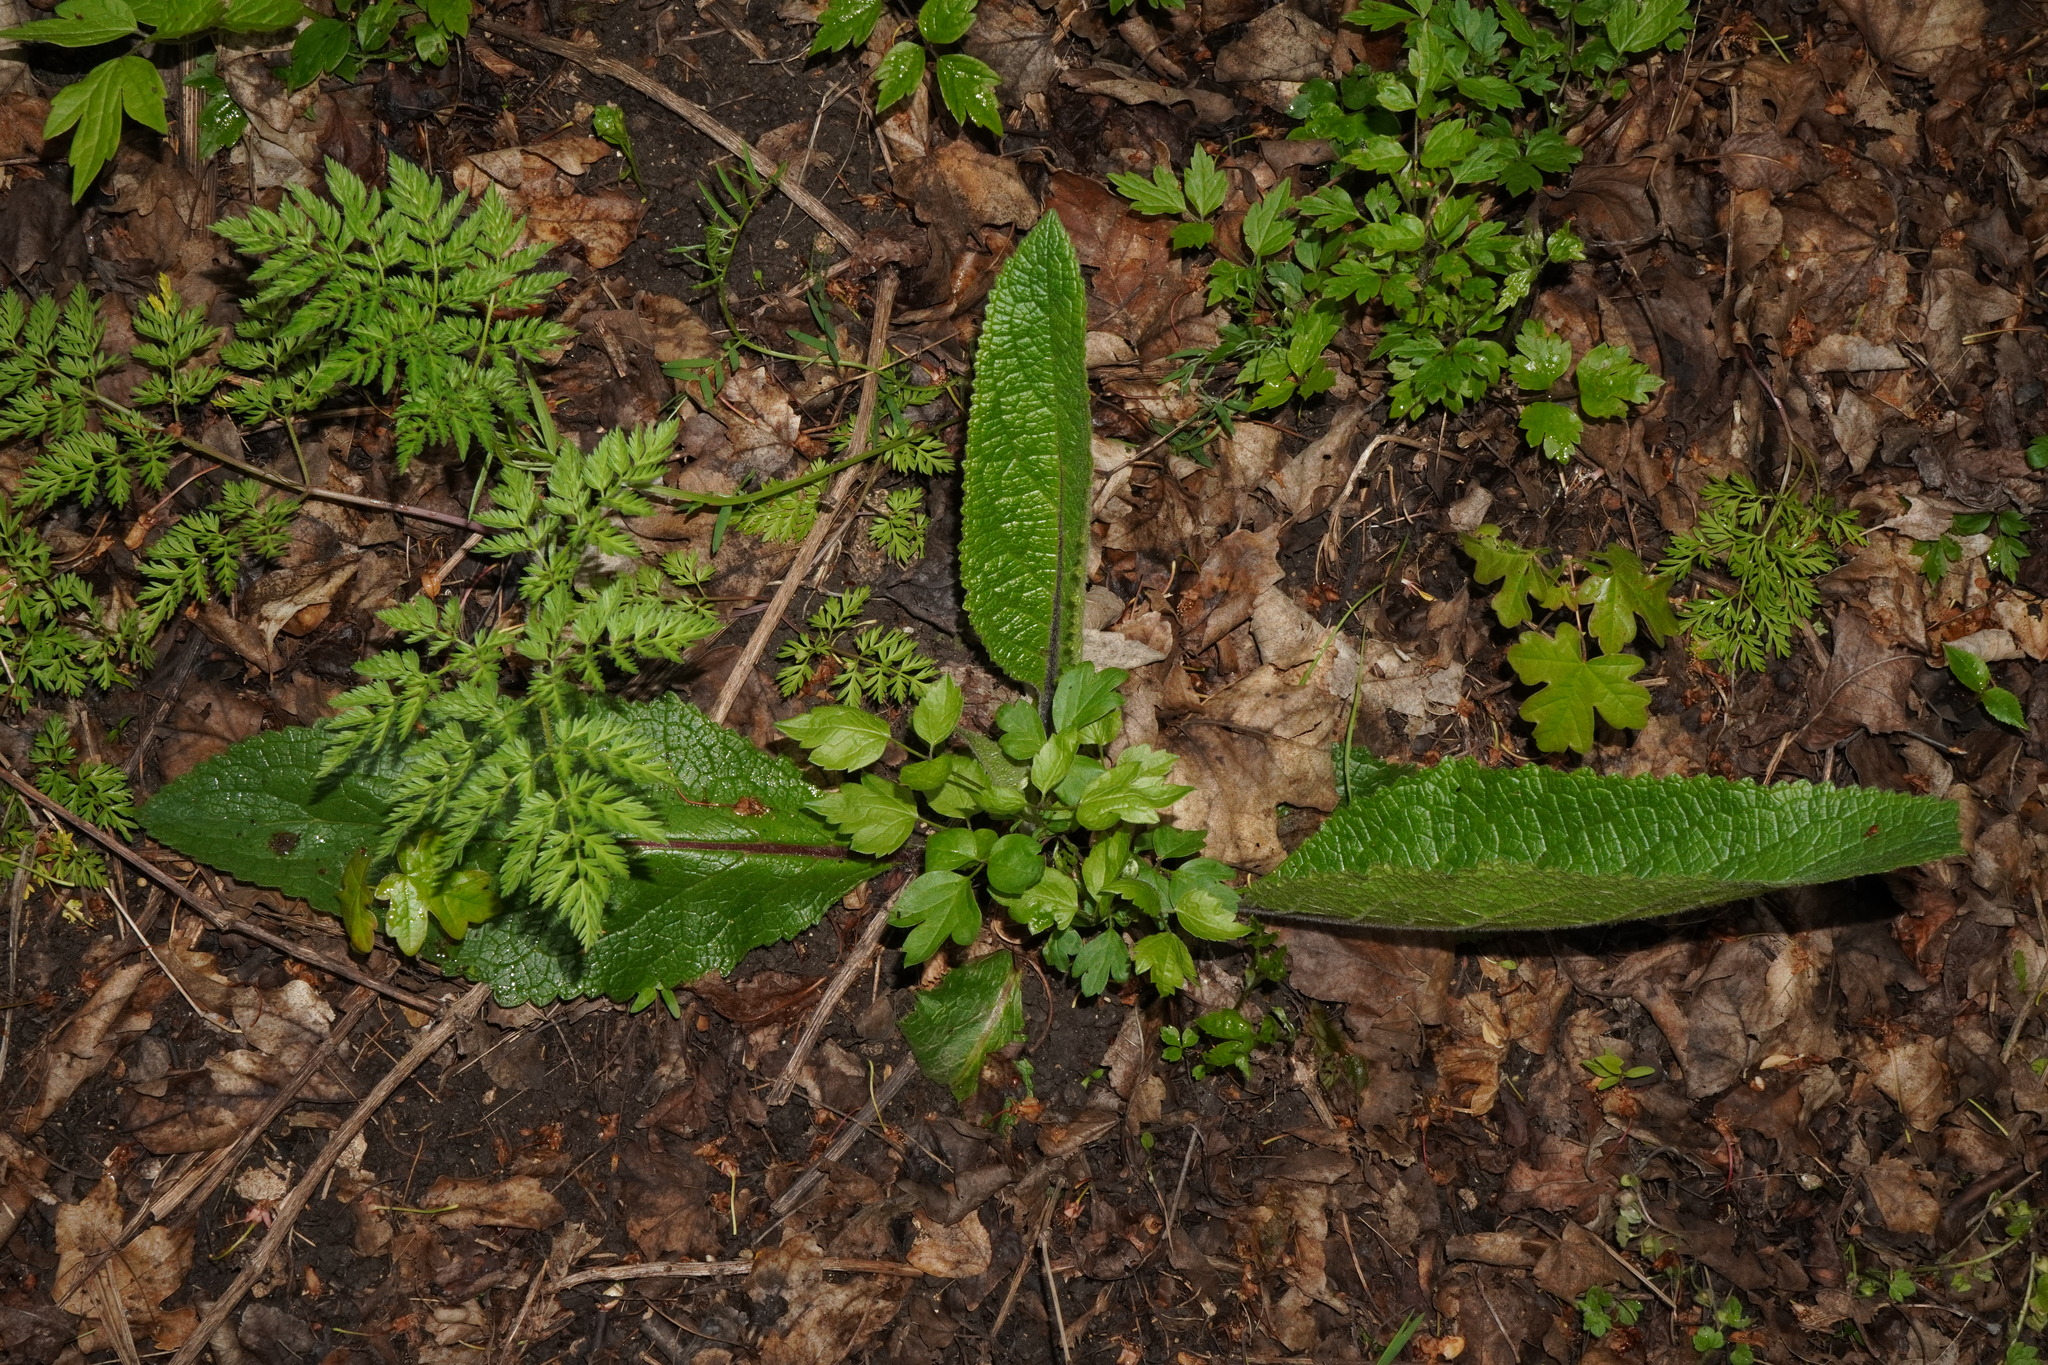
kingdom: Plantae
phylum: Tracheophyta
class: Magnoliopsida
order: Lamiales
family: Scrophulariaceae
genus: Verbascum
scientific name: Verbascum chaixii
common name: Nettle-leaved mullein
